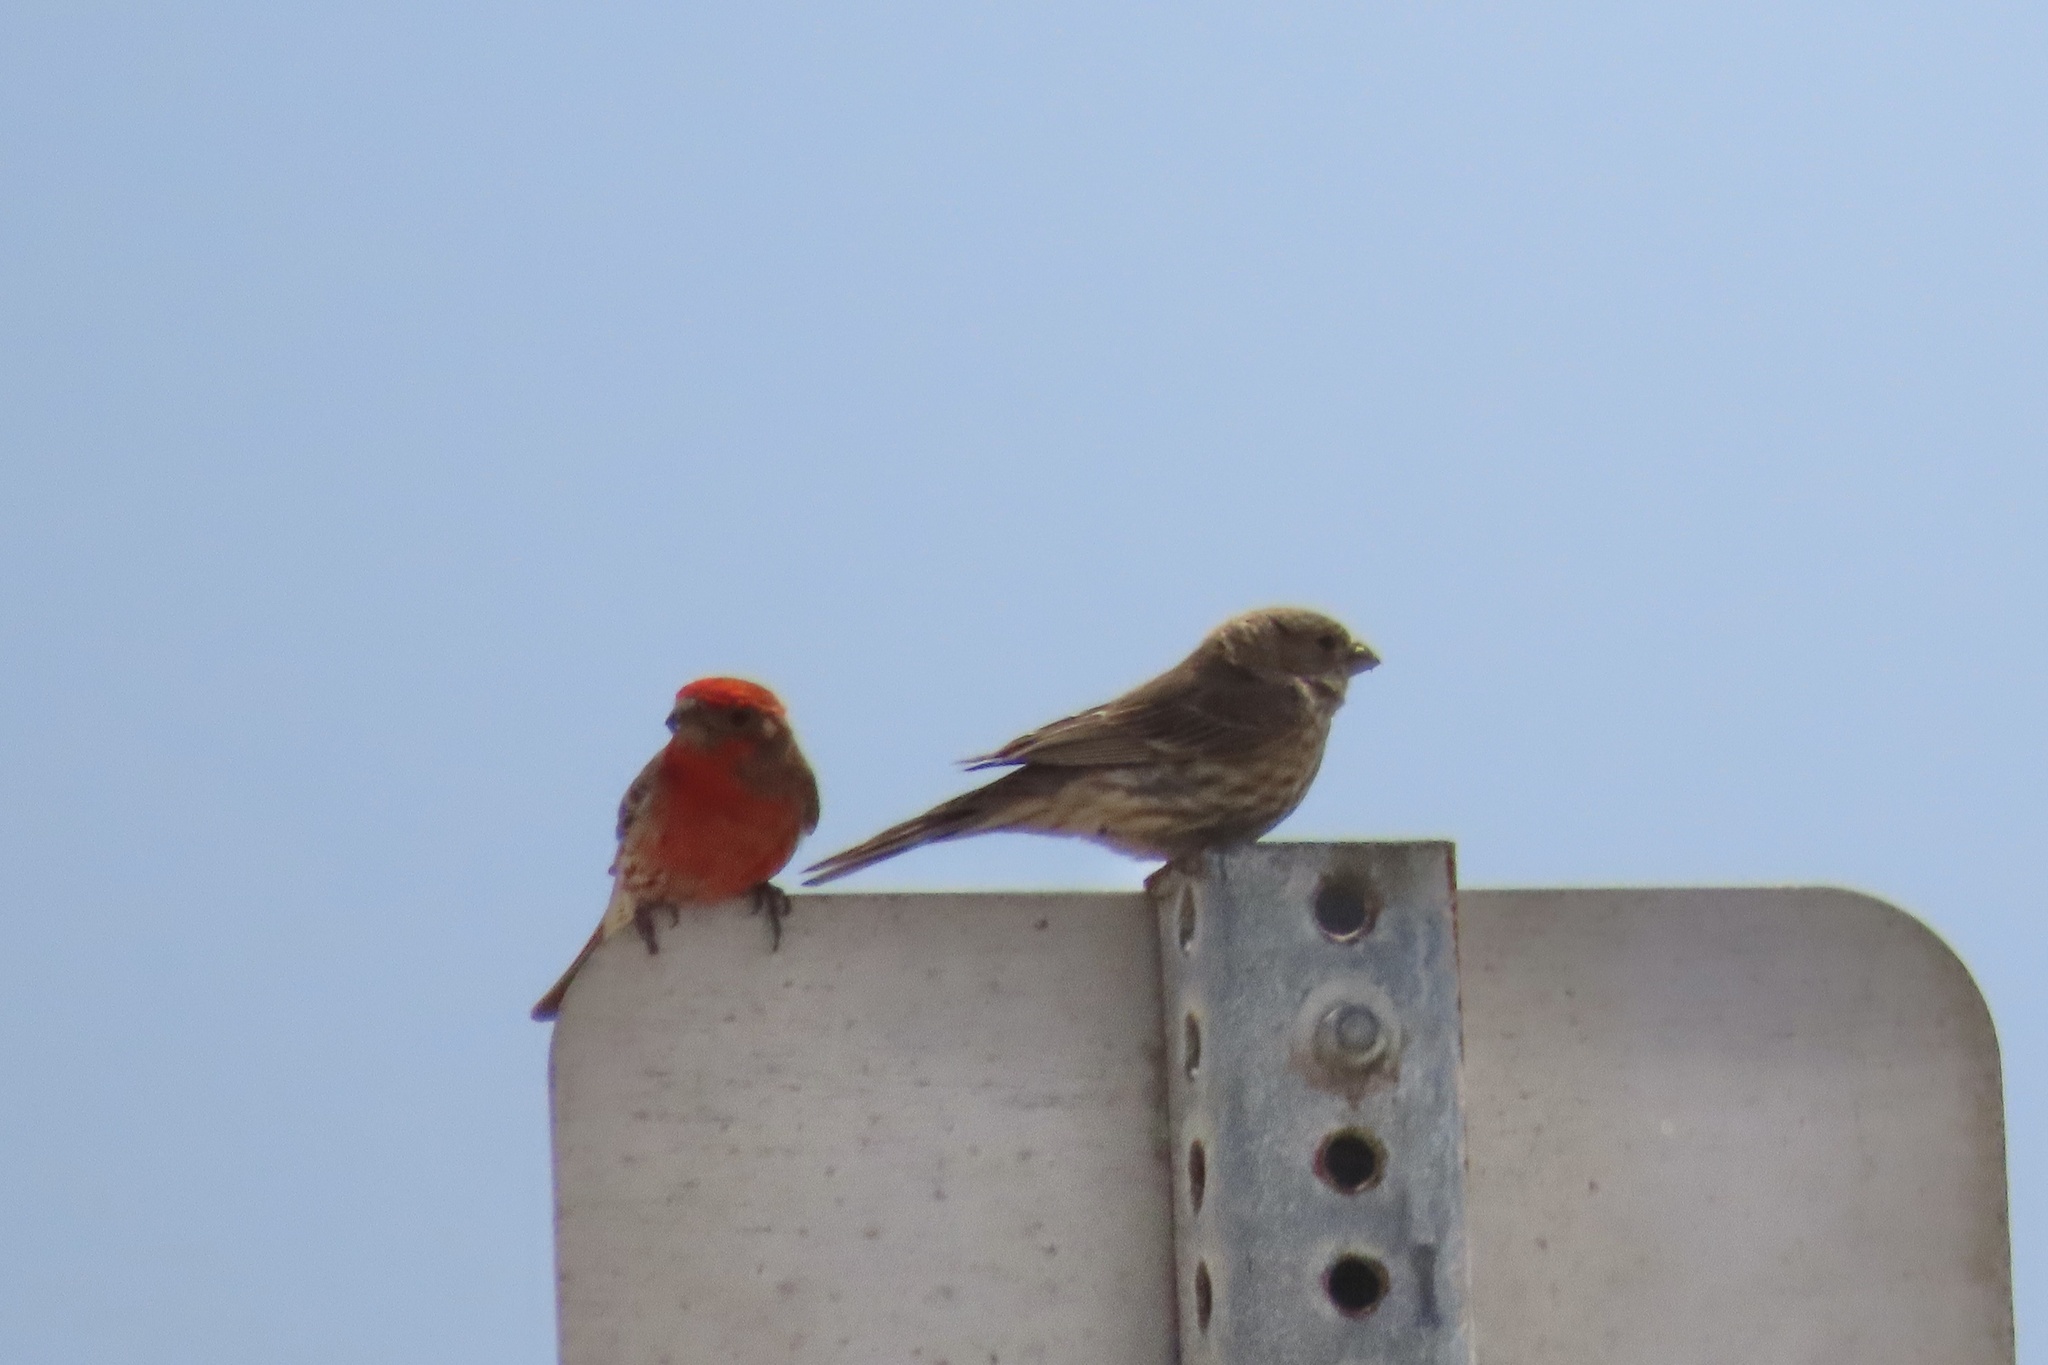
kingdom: Animalia
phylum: Chordata
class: Aves
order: Passeriformes
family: Fringillidae
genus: Haemorhous
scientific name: Haemorhous mexicanus
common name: House finch
